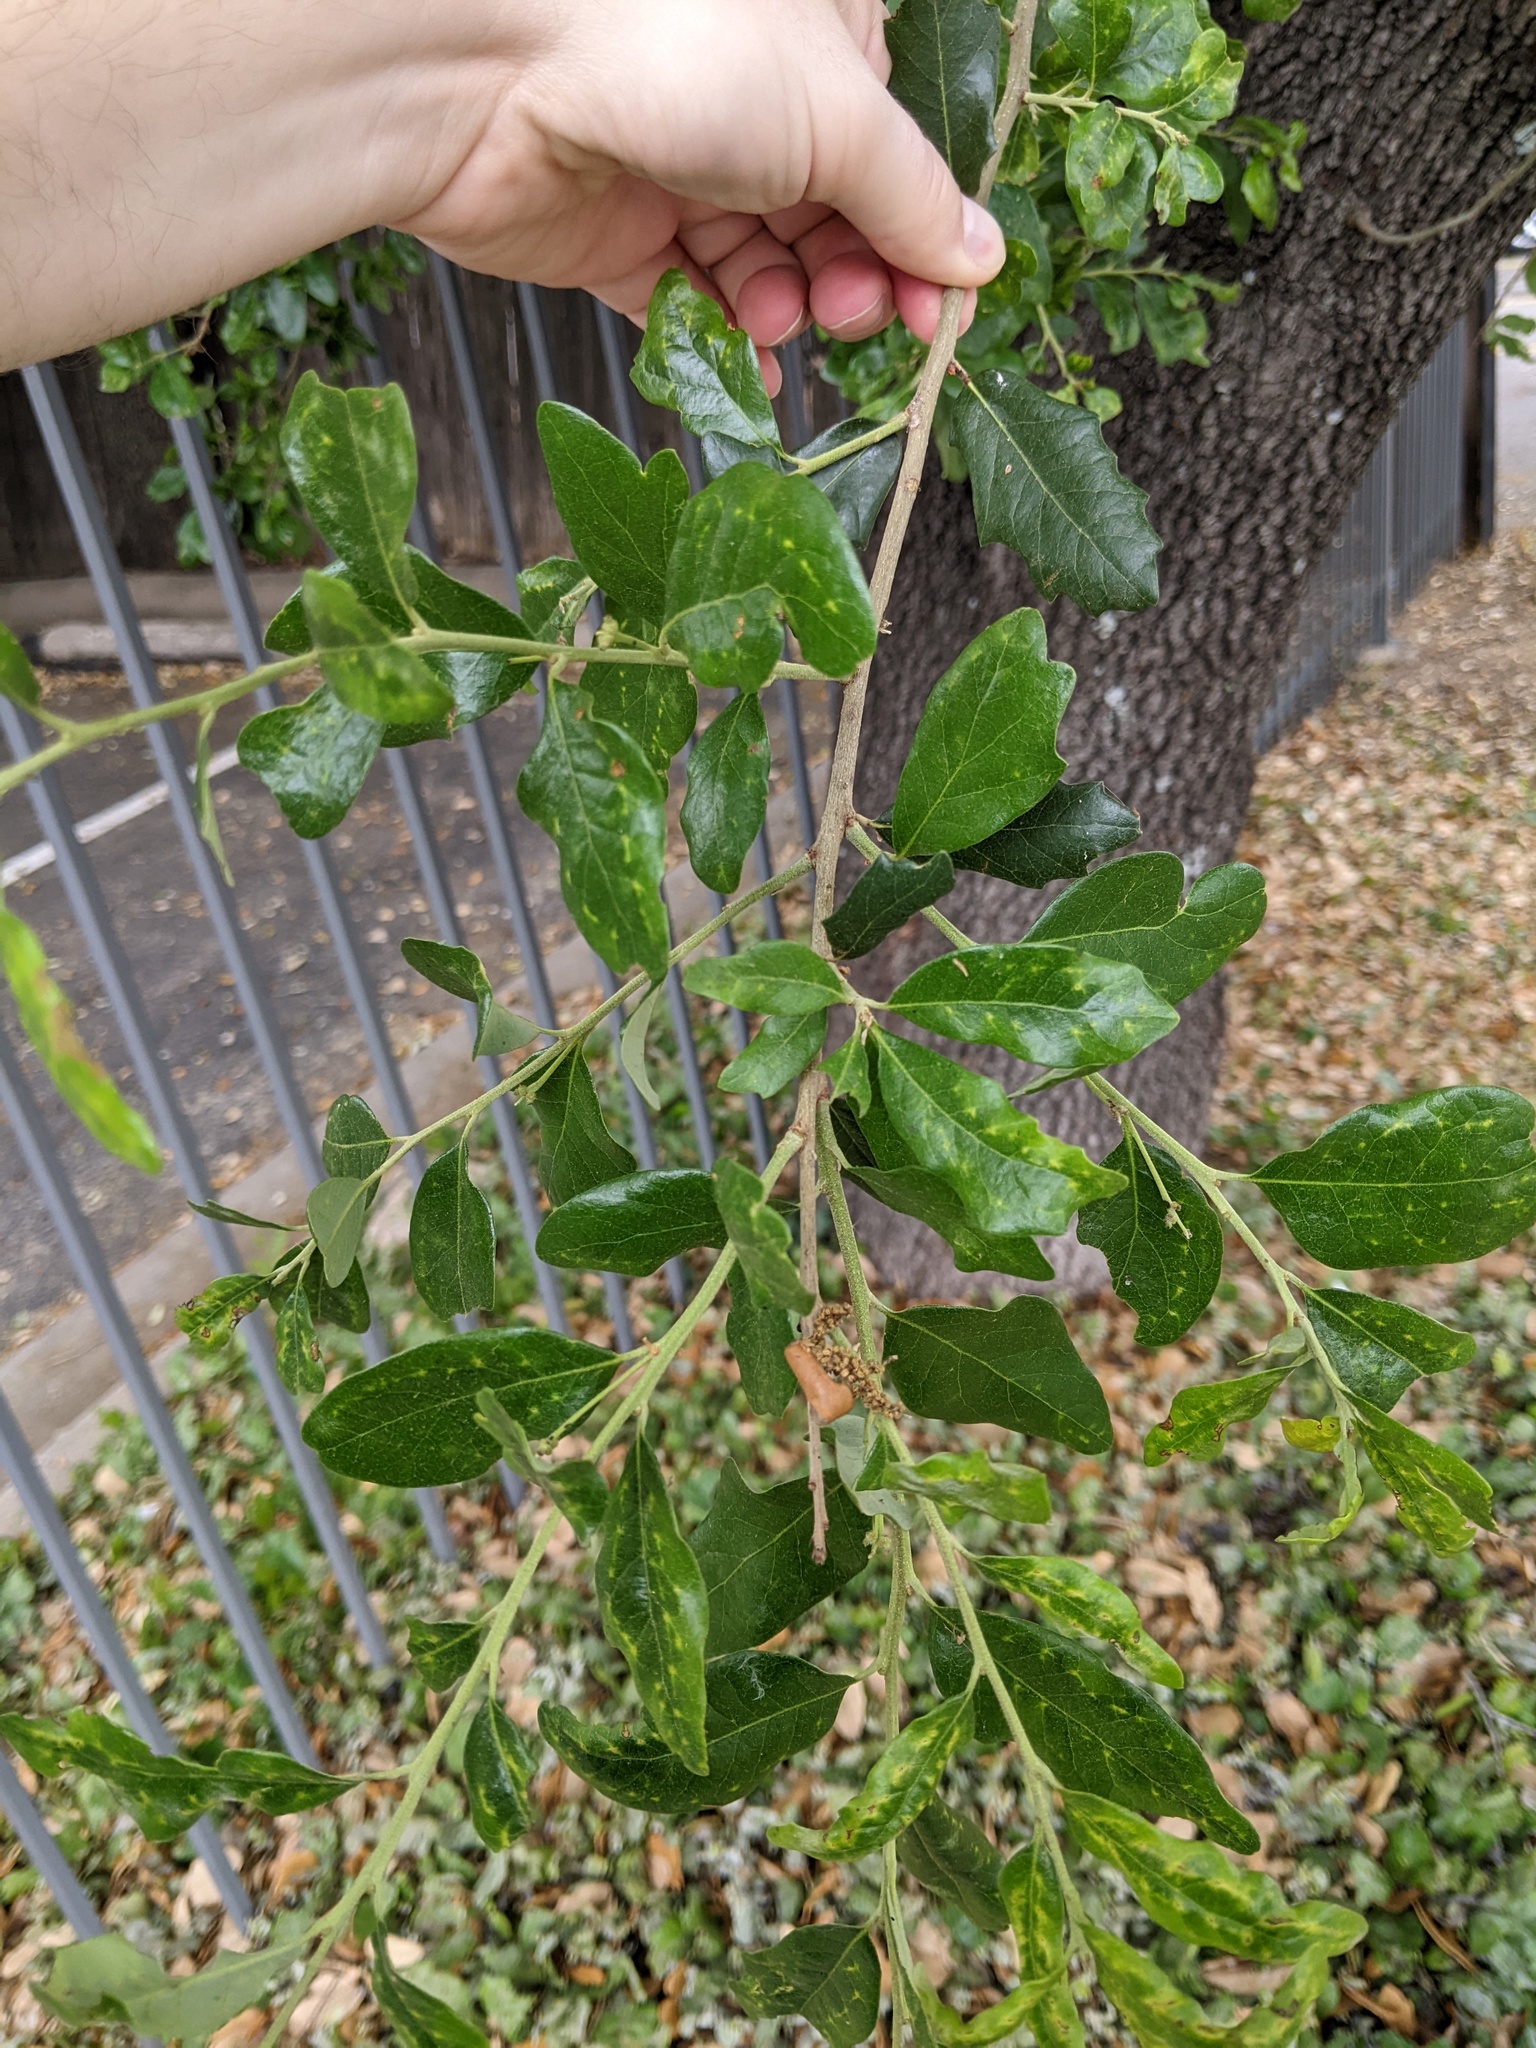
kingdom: Animalia
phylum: Arthropoda
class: Insecta
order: Hymenoptera
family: Cynipidae
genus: Belonocnema
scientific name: Belonocnema kinseyi
